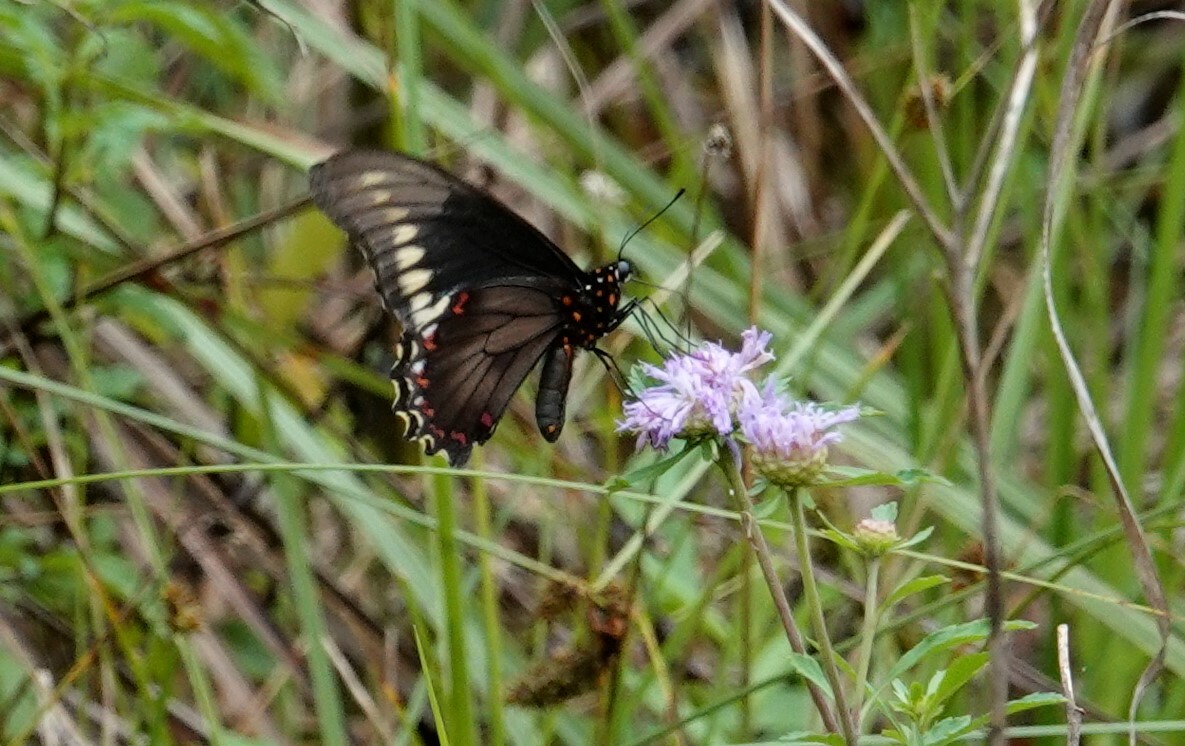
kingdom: Animalia
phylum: Arthropoda
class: Insecta
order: Lepidoptera
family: Papilionidae
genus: Battus
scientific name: Battus polydamas
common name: Polydamas swallowtail
